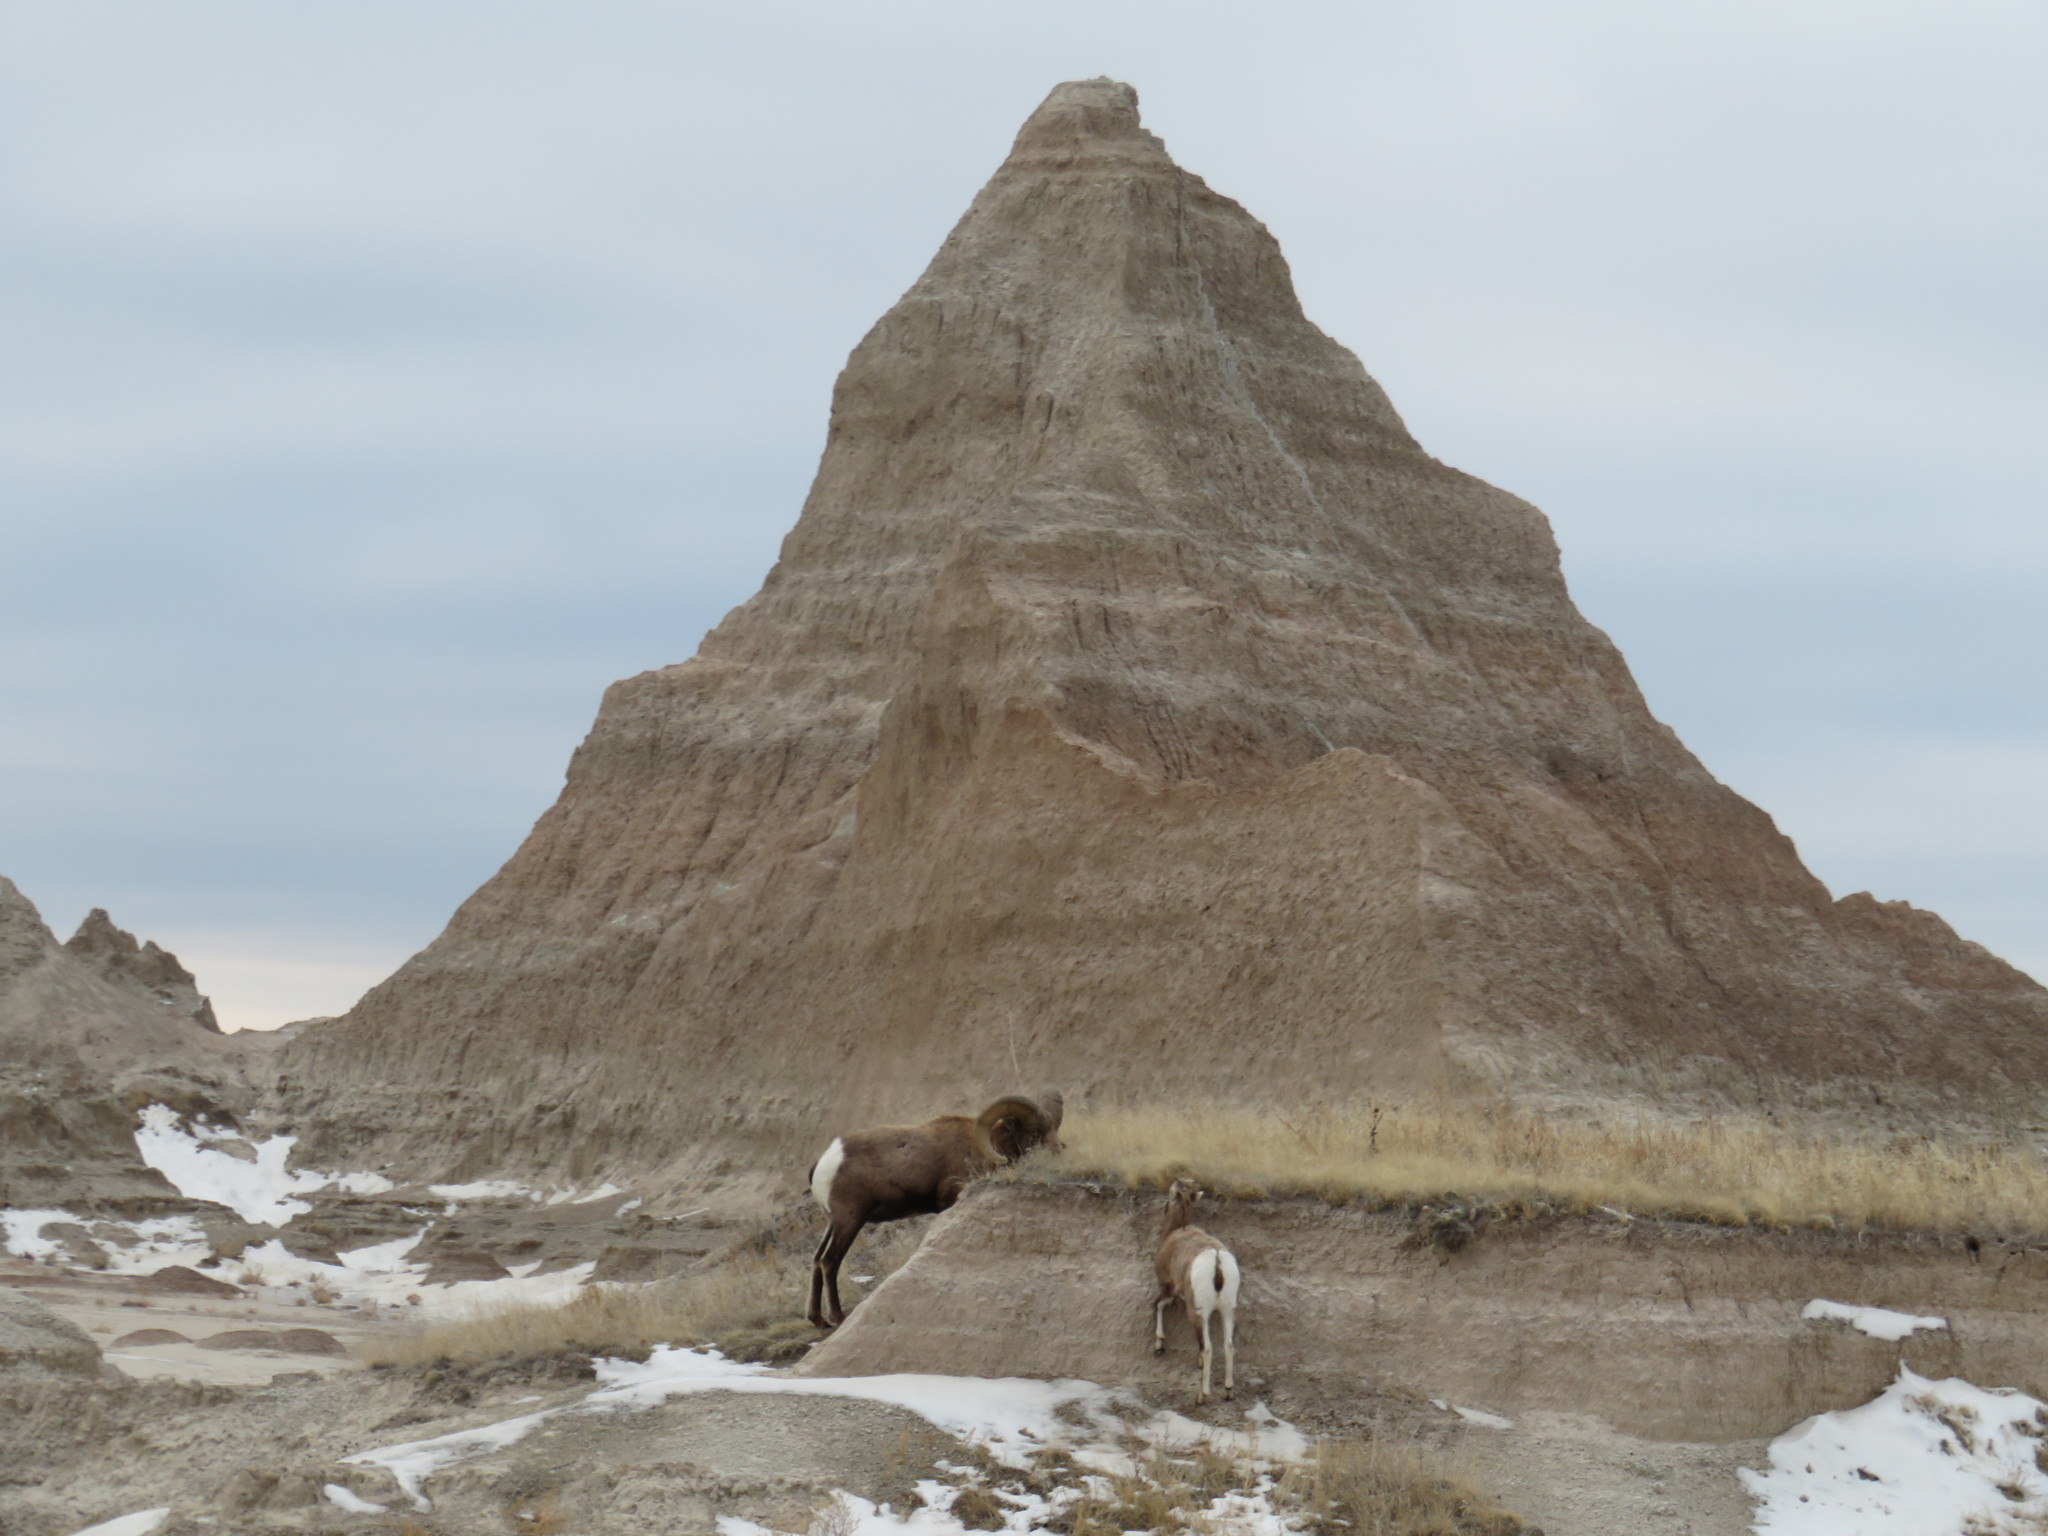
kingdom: Animalia
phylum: Chordata
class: Mammalia
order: Artiodactyla
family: Bovidae
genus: Ovis
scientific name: Ovis canadensis
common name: Bighorn sheep
